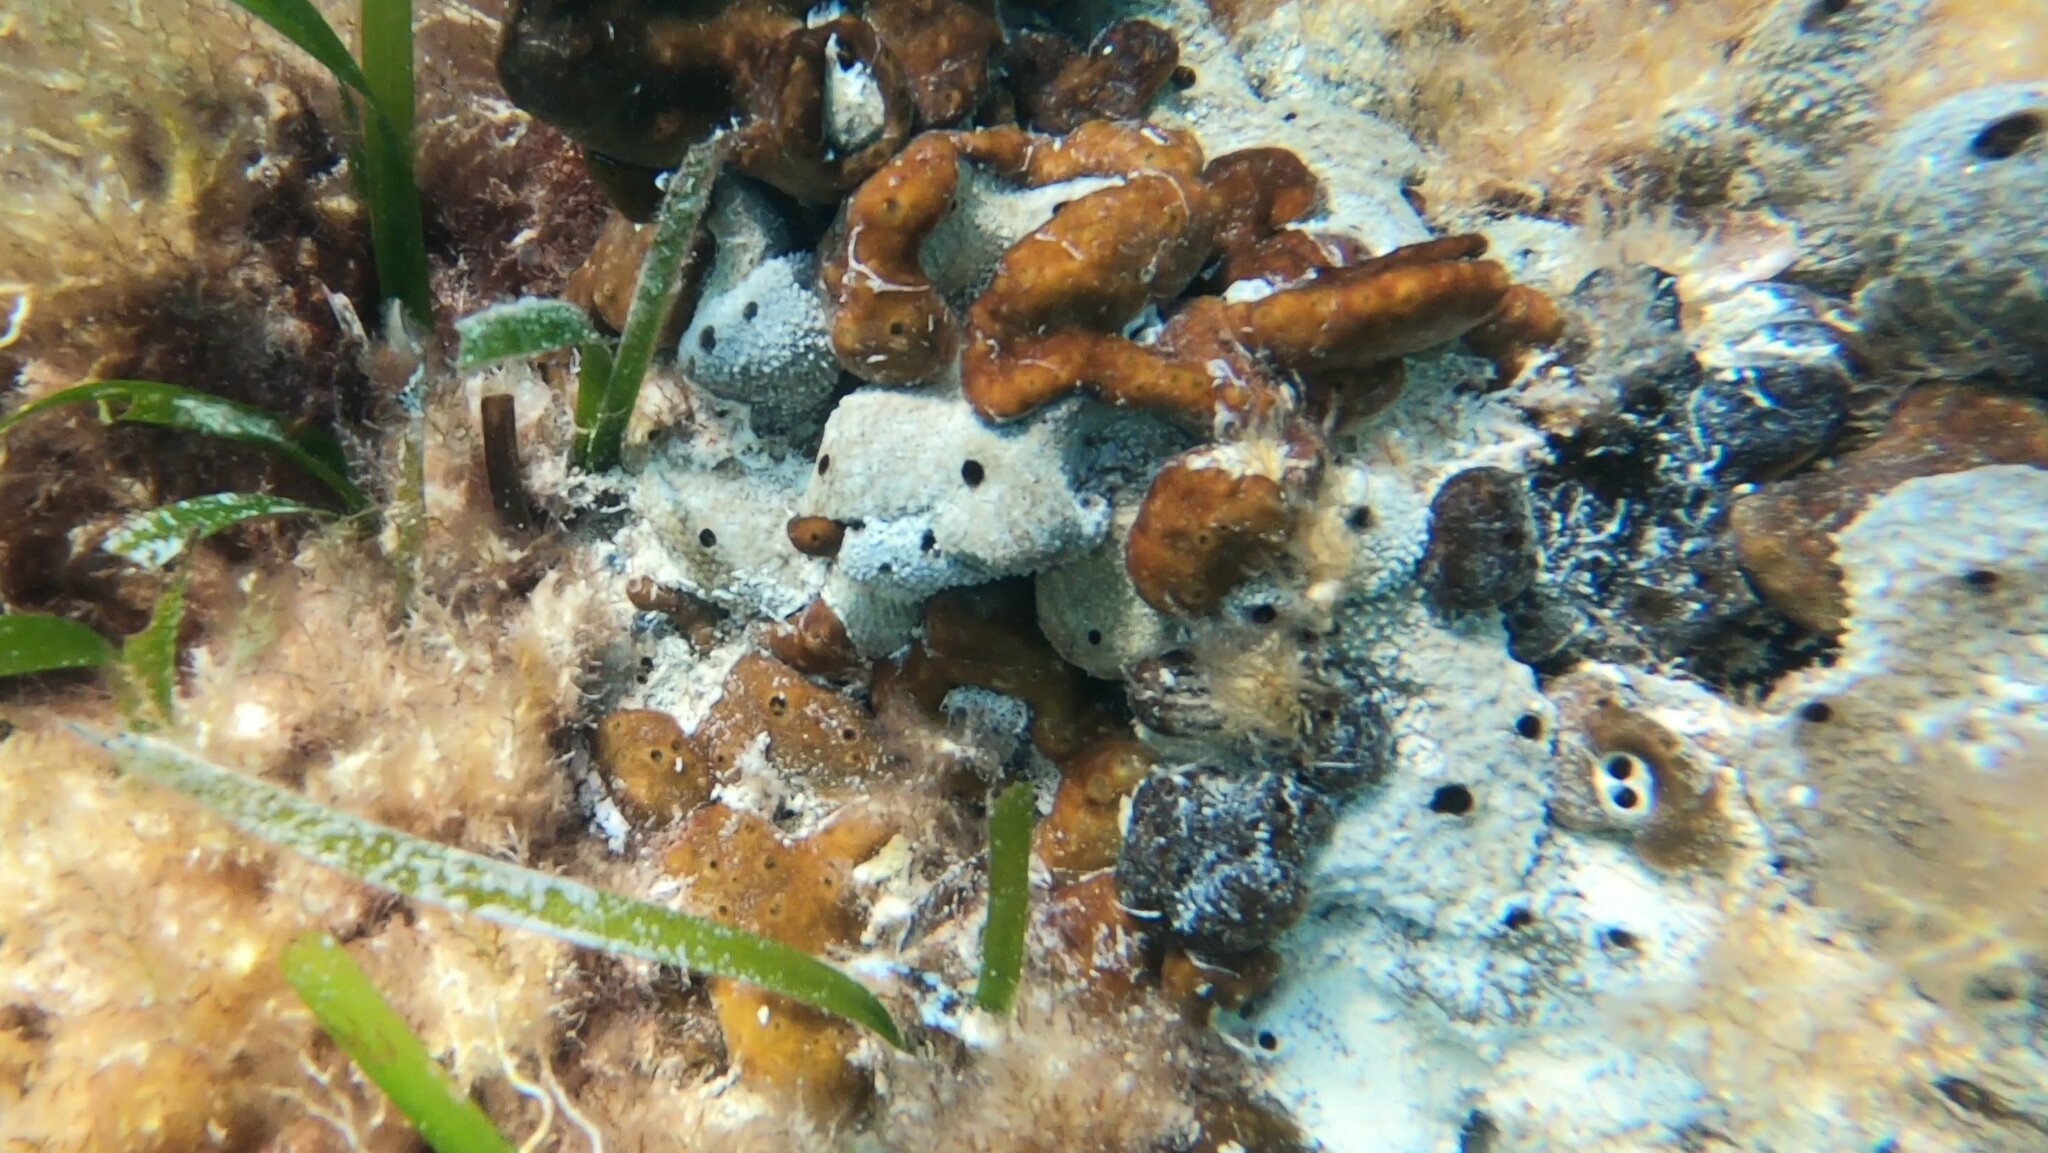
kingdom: Animalia
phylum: Porifera
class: Demospongiae
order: Chondrillida
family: Chondrillidae
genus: Chondrilla
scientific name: Chondrilla nucula
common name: Chicken liver sponge
